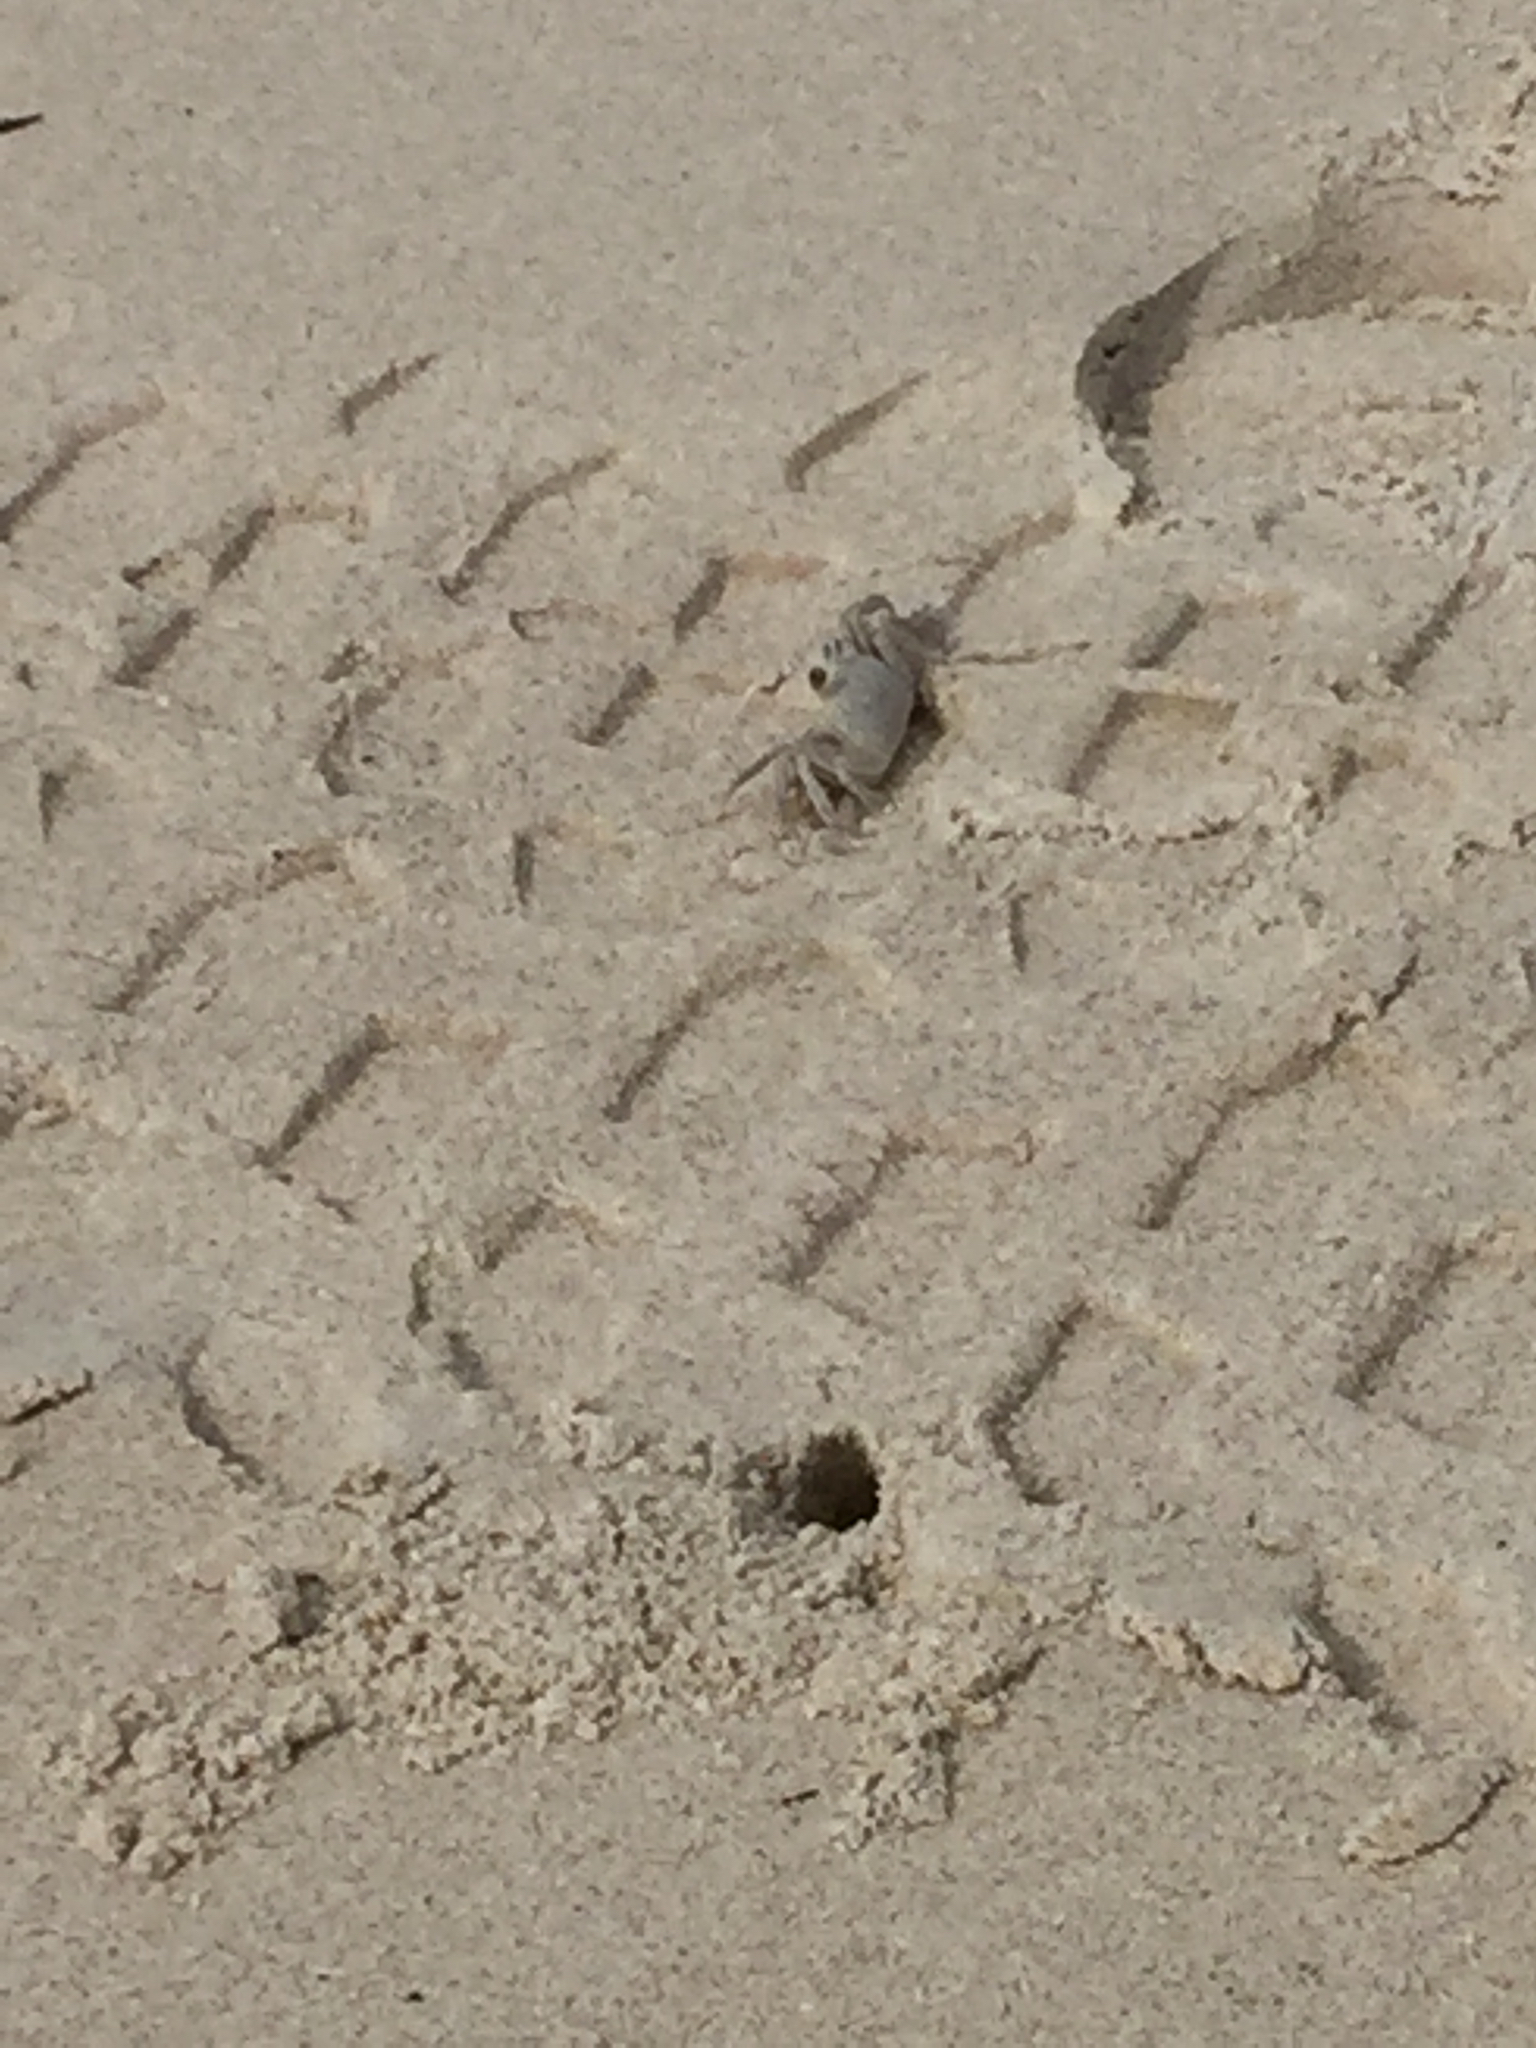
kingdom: Animalia
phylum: Arthropoda
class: Malacostraca
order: Decapoda
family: Ocypodidae
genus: Ocypode
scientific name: Ocypode quadrata
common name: Ghost crab
